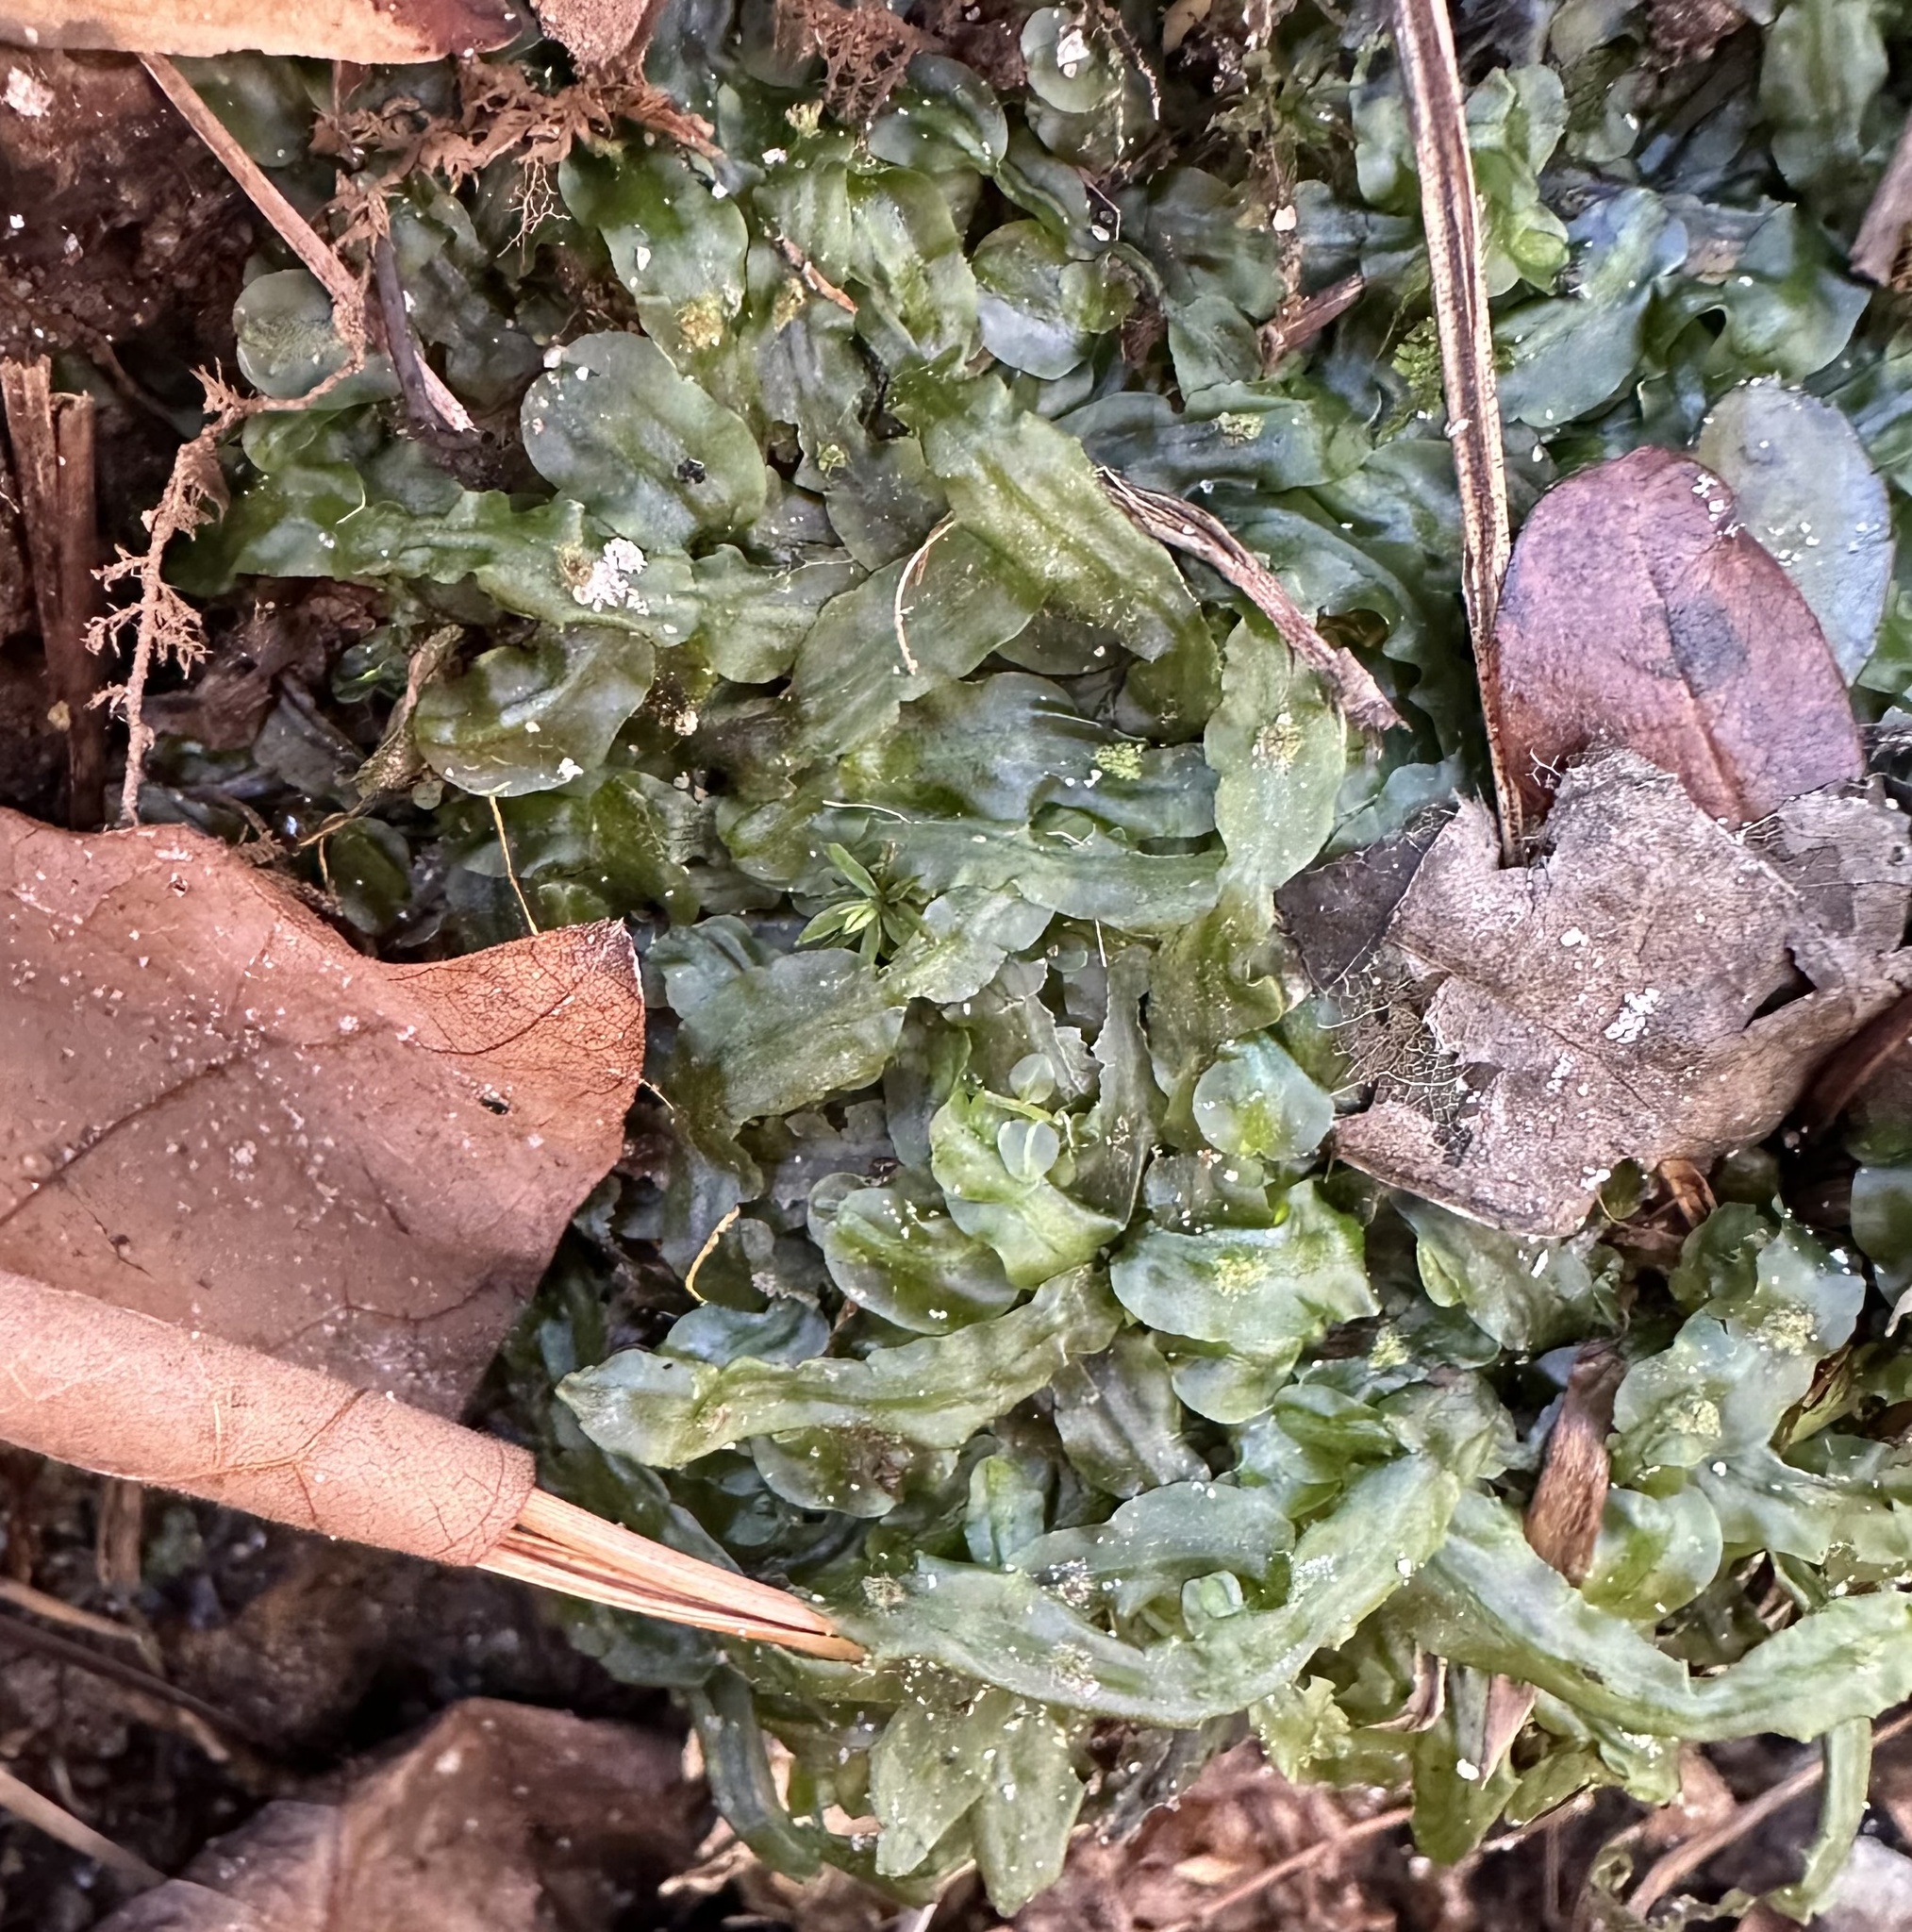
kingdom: Plantae
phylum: Marchantiophyta
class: Jungermanniopsida
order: Pallaviciniales
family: Pallaviciniaceae
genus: Pallavicinia
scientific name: Pallavicinia lyellii
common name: Veilwort
